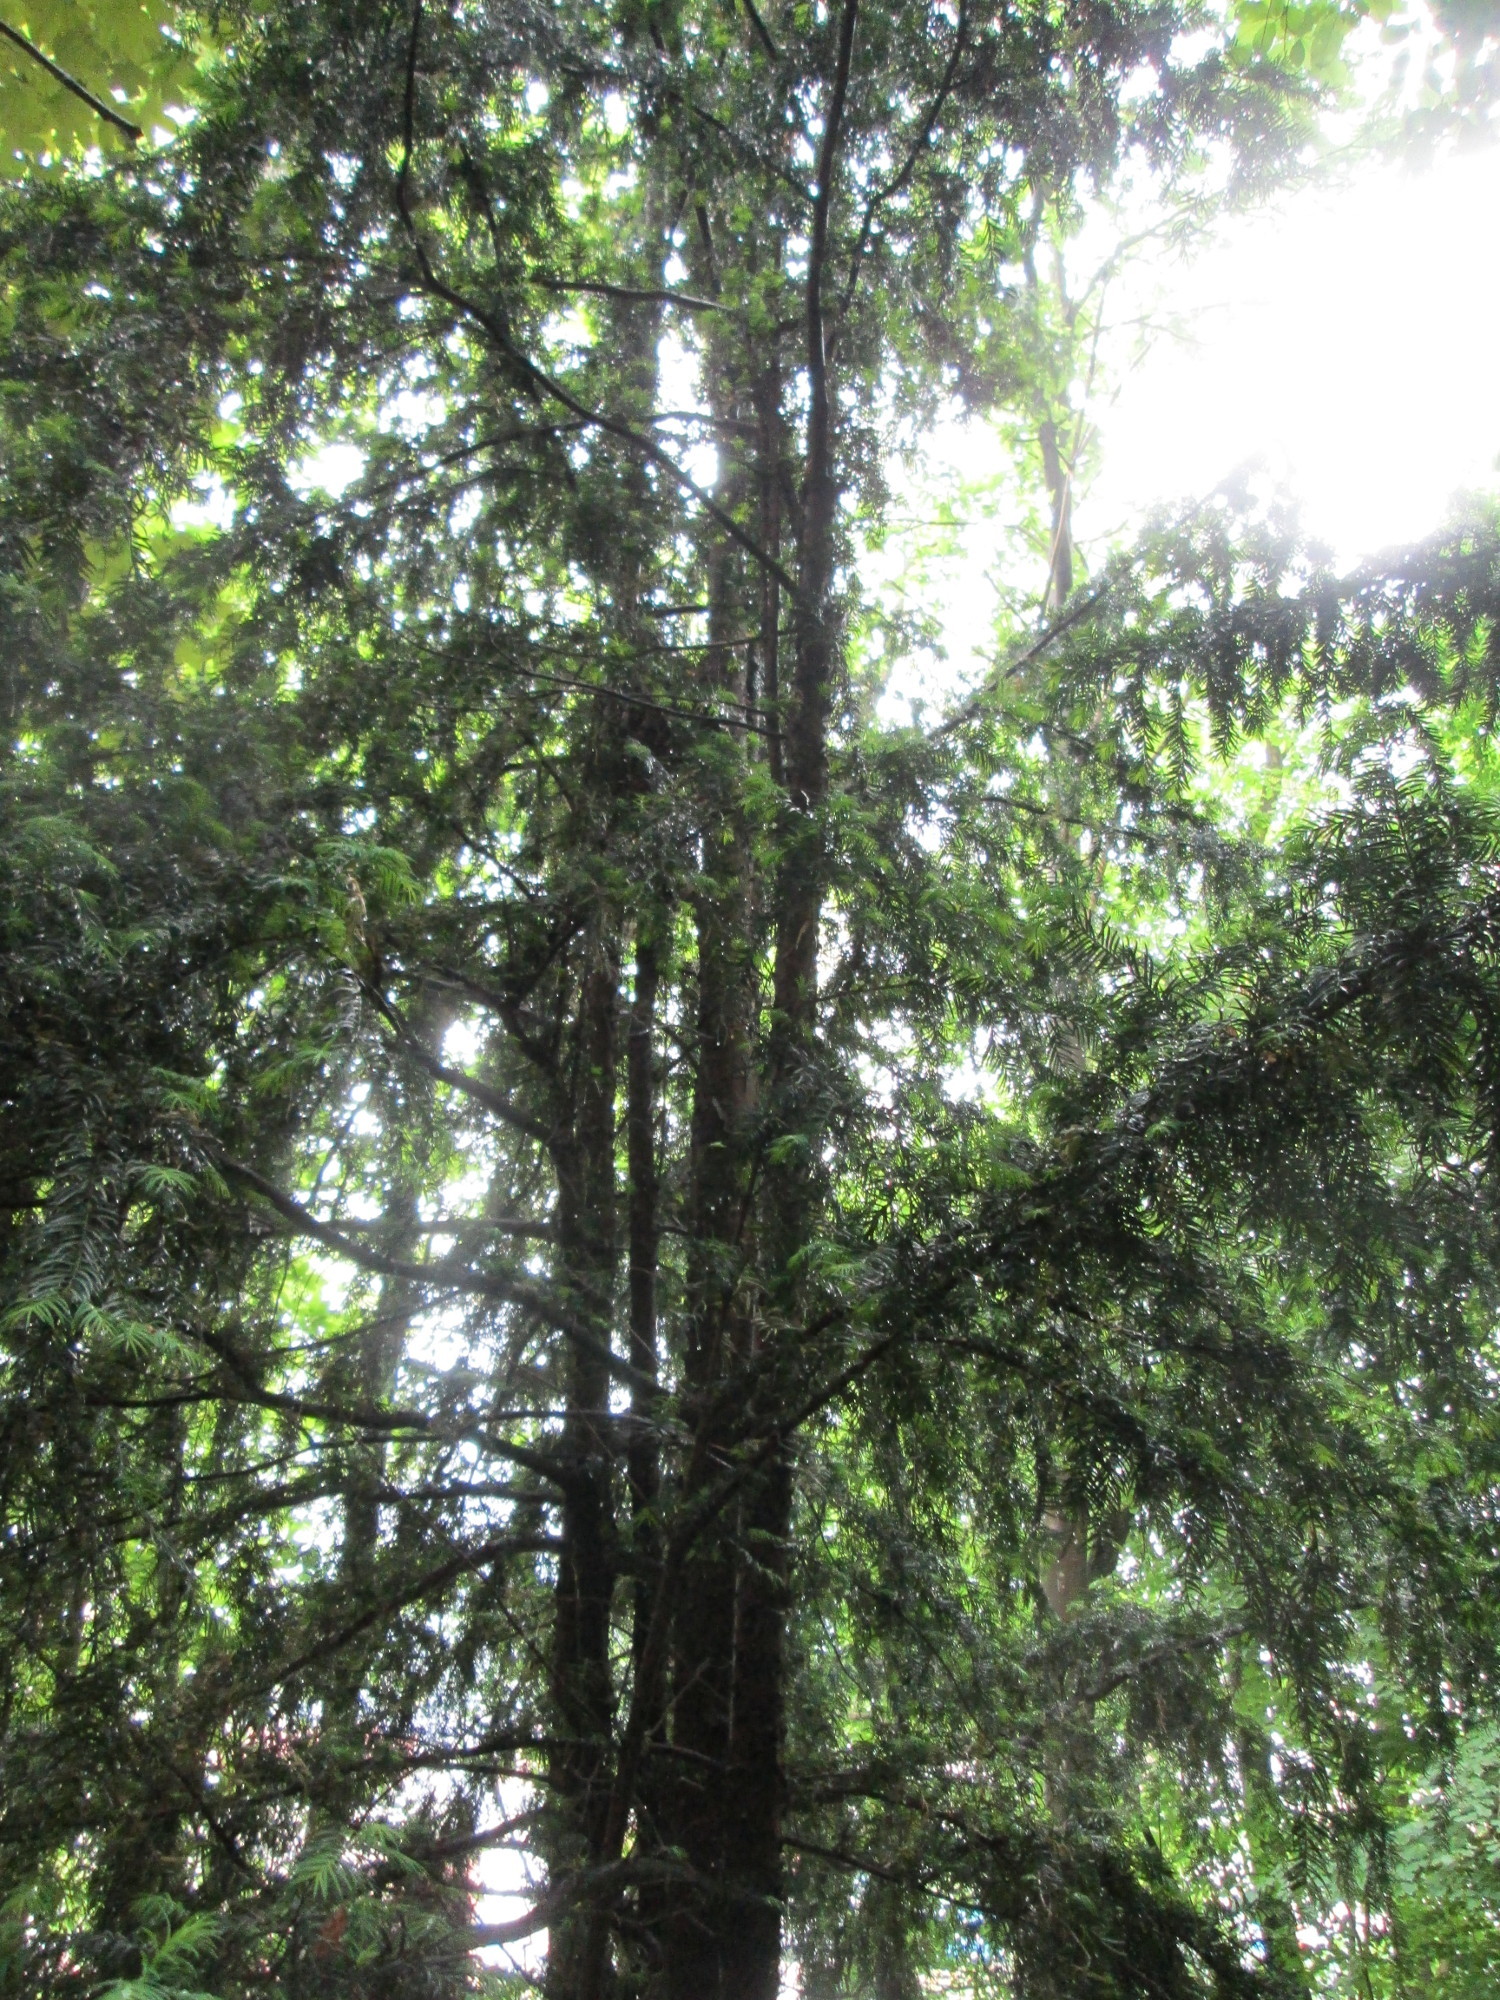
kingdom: Plantae
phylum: Tracheophyta
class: Pinopsida
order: Pinales
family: Taxaceae
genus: Taxus
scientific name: Taxus baccata
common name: Yew
